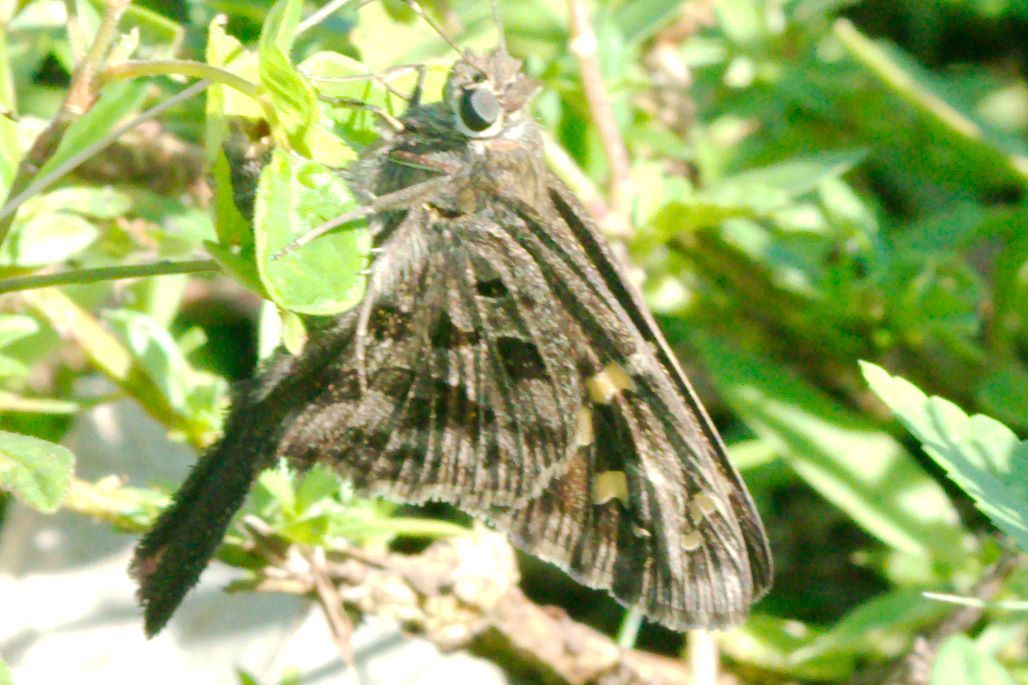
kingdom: Animalia
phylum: Arthropoda
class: Insecta
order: Lepidoptera
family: Hesperiidae
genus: Thorybes
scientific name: Thorybes
